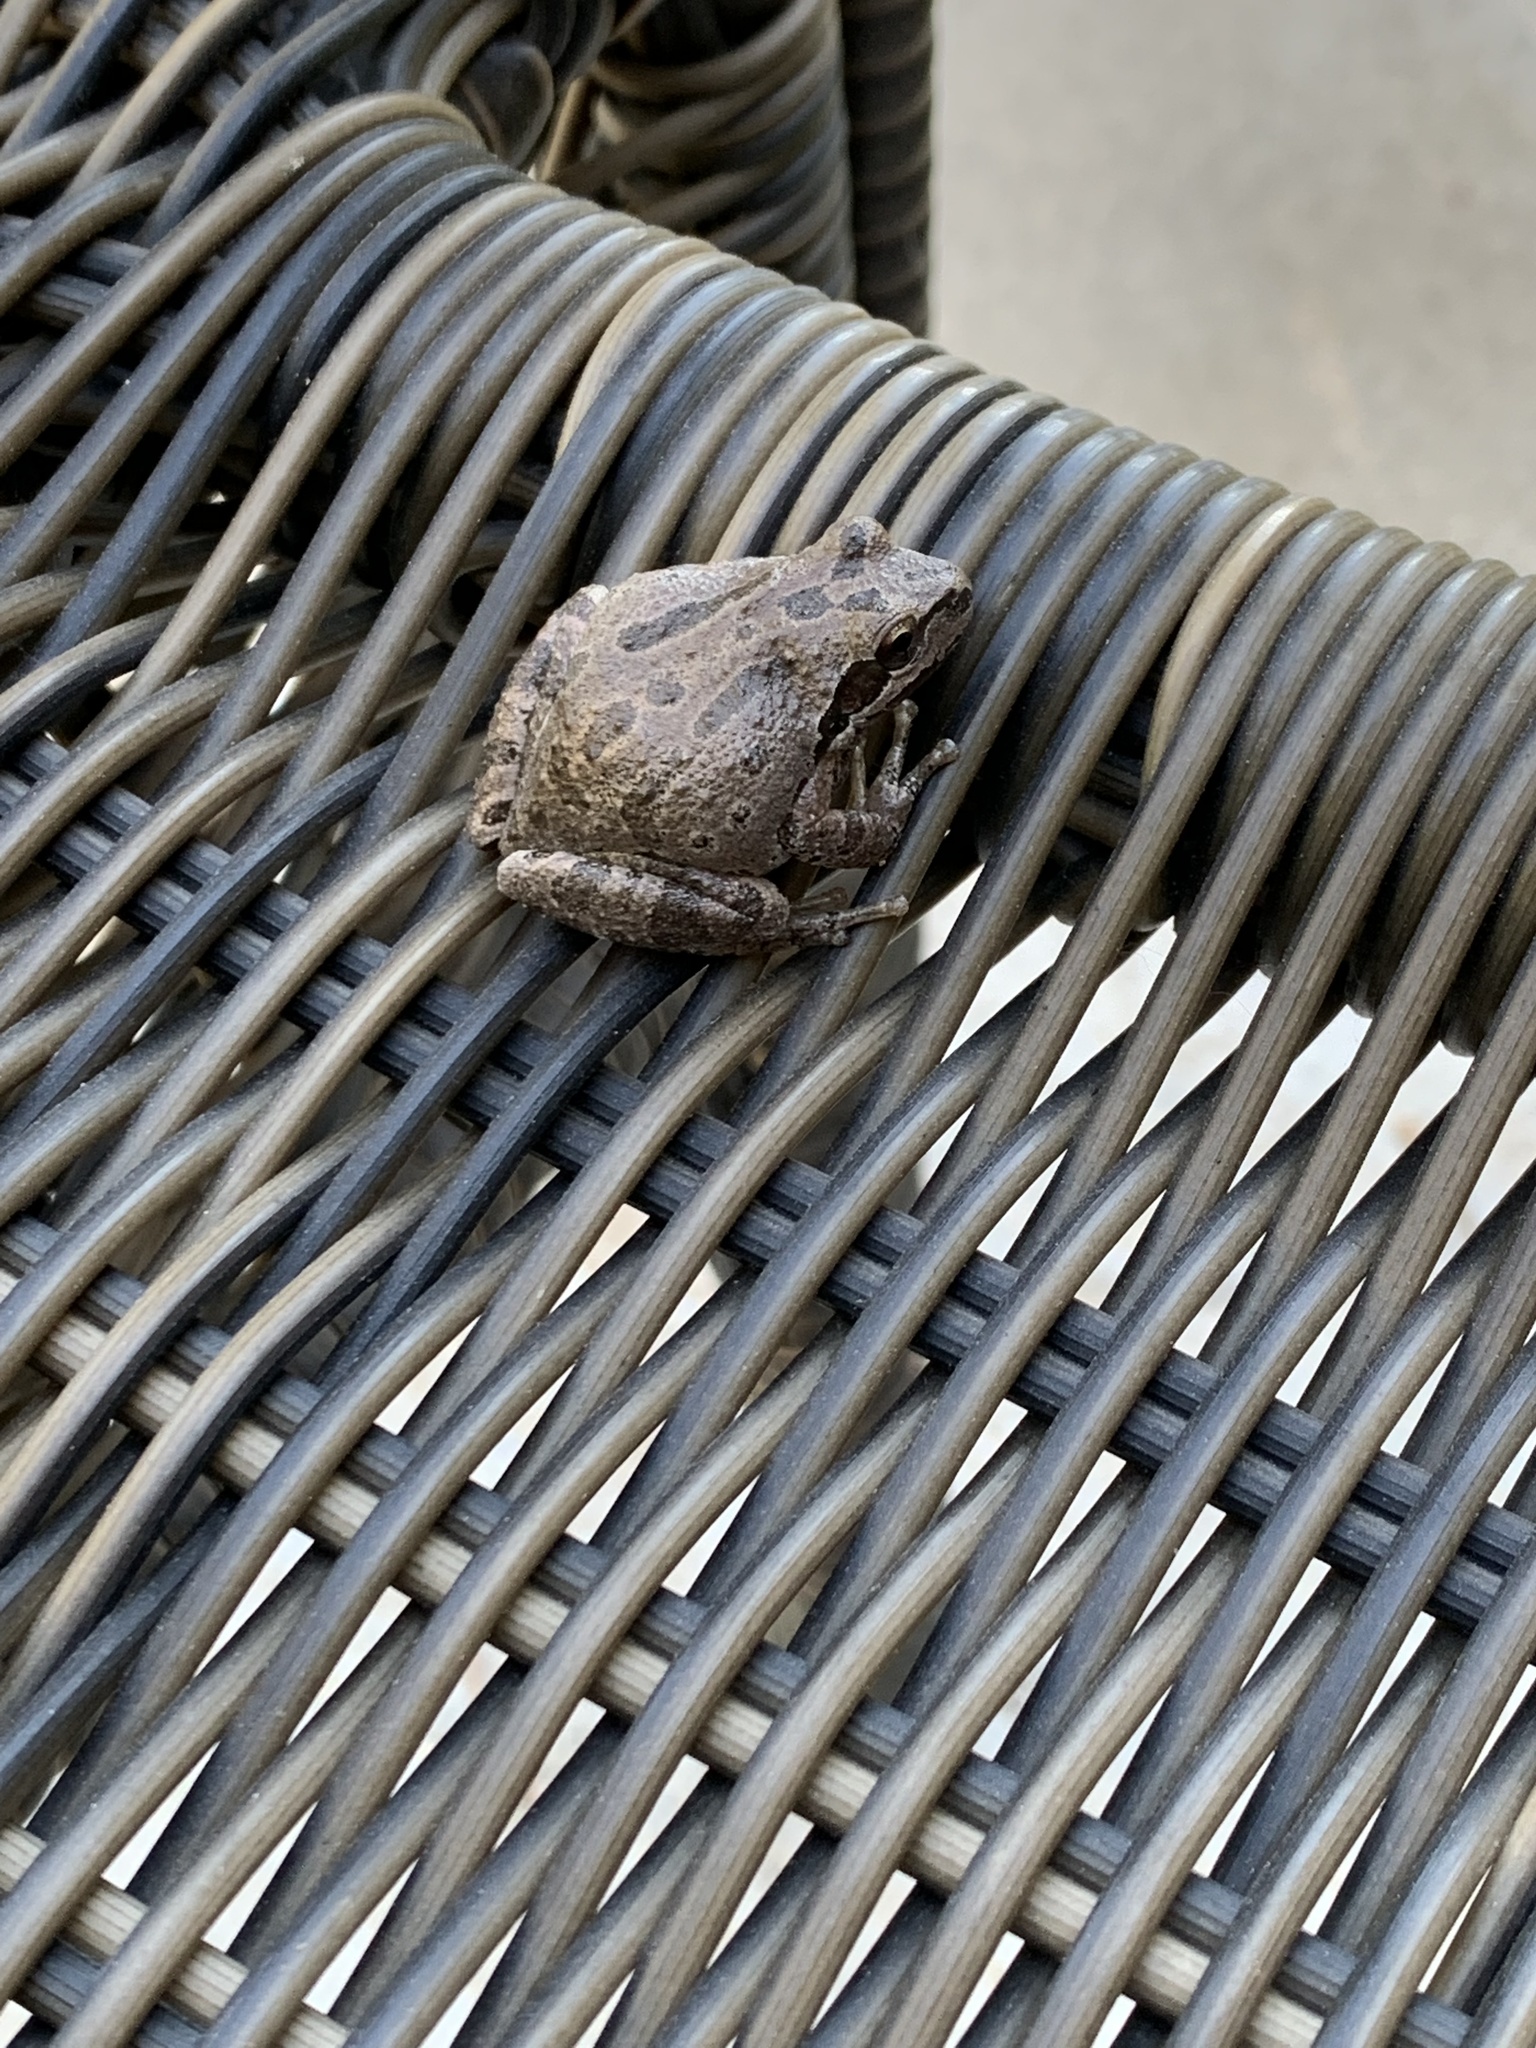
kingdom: Animalia
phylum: Chordata
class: Amphibia
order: Anura
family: Hylidae
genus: Pseudacris
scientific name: Pseudacris regilla
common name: Pacific chorus frog
